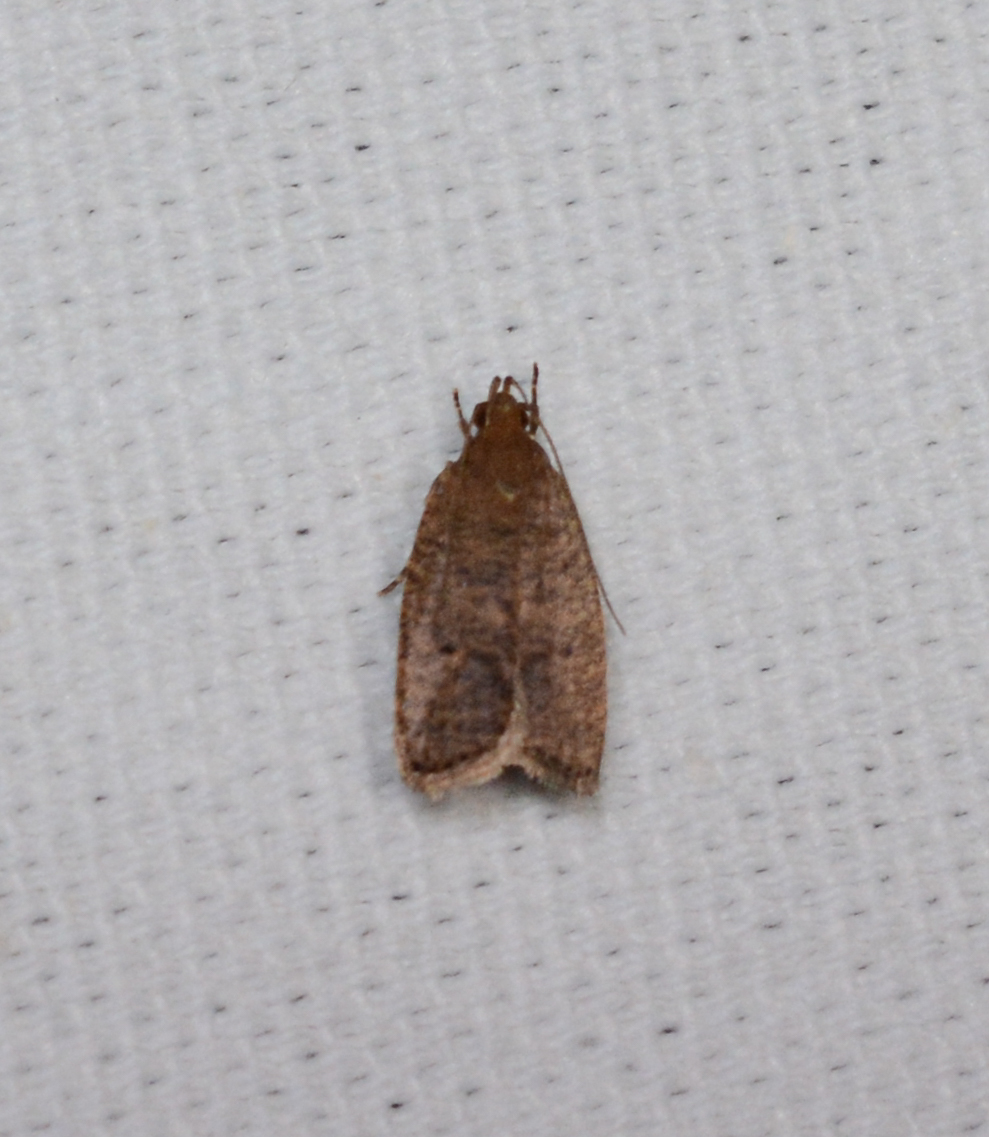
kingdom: Animalia
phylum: Arthropoda
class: Insecta
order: Lepidoptera
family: Depressariidae
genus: Psilocorsis
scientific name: Psilocorsis reflexella
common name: Dotted leaftier moth
